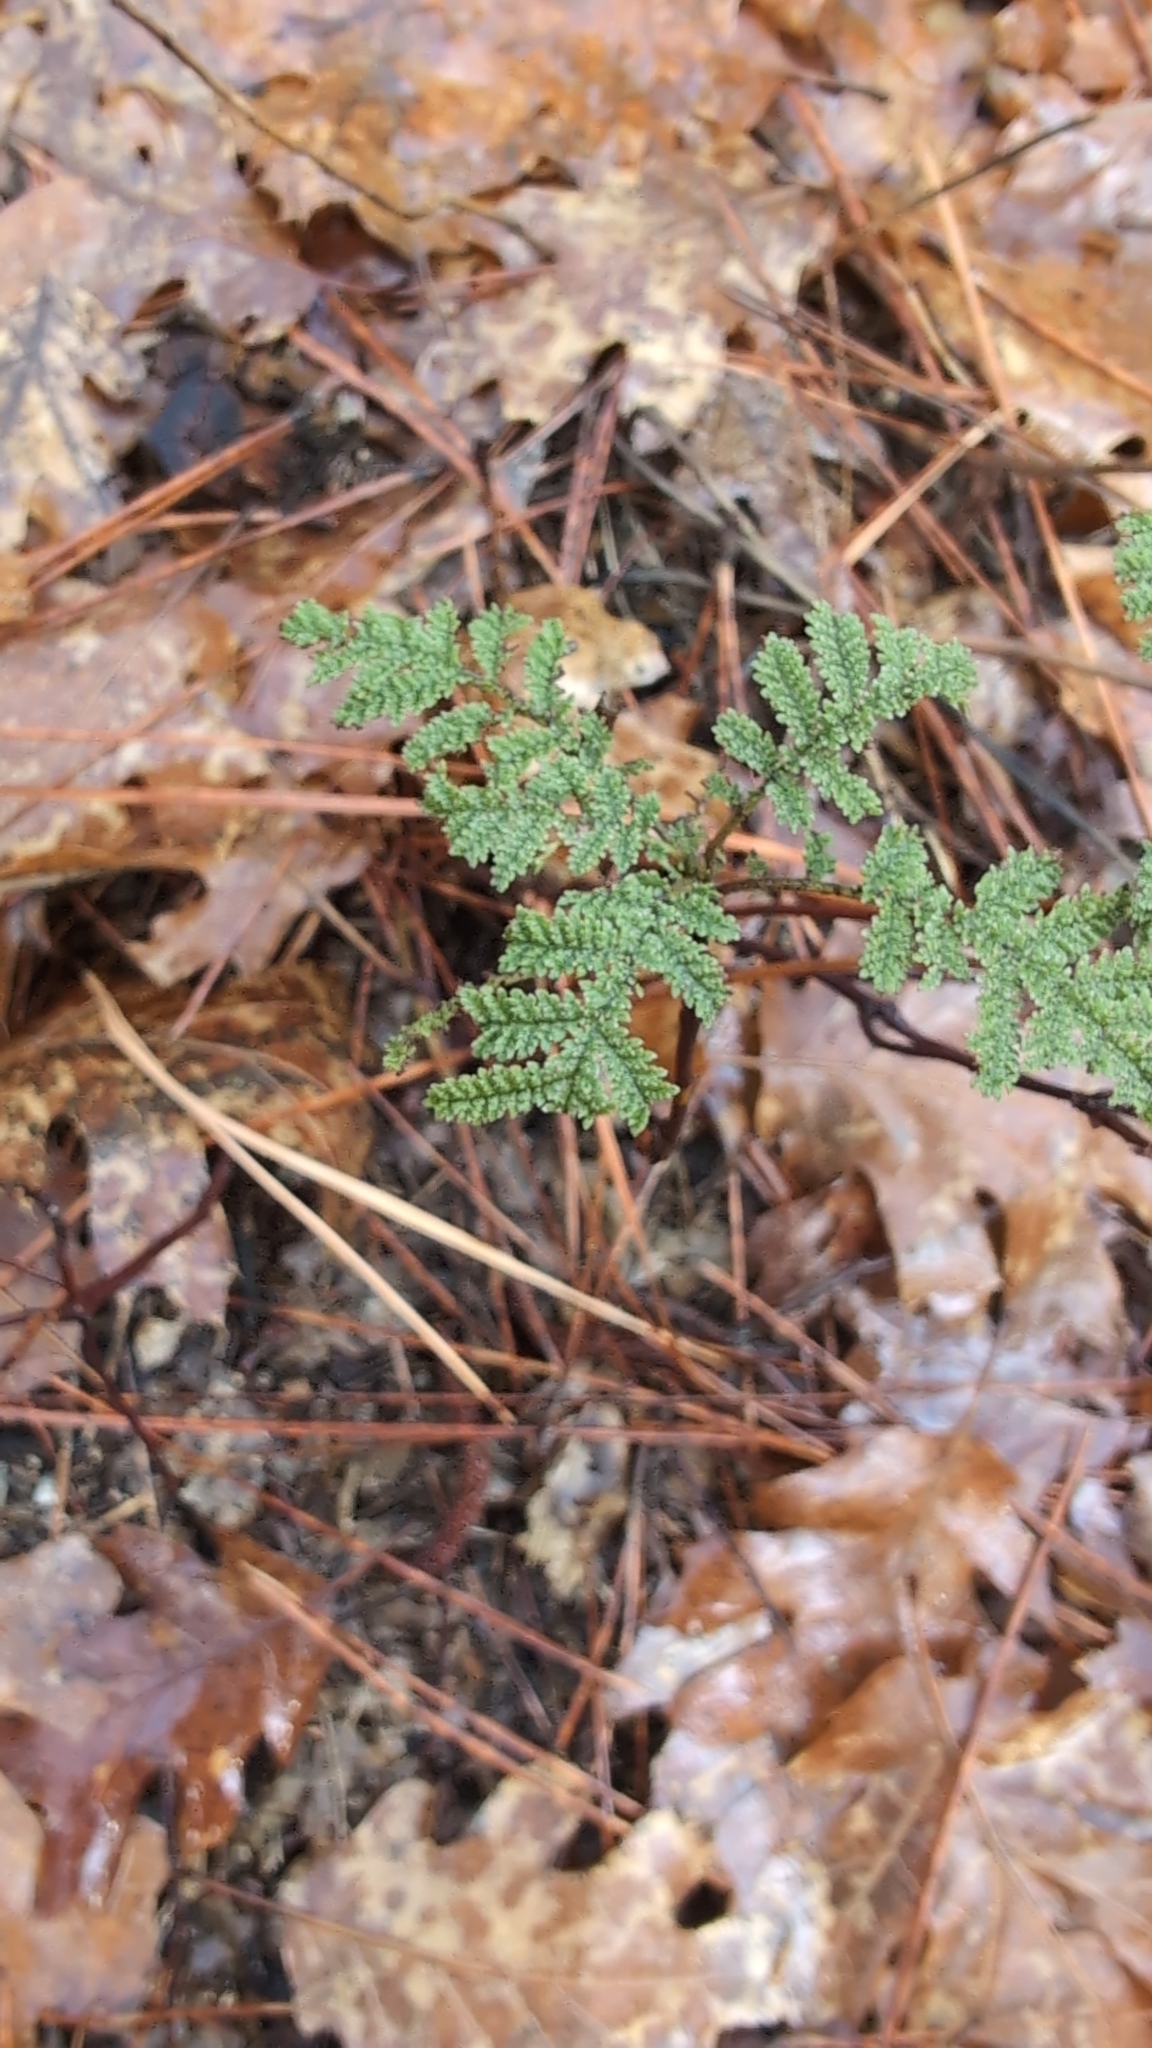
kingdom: Plantae
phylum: Tracheophyta
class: Magnoliopsida
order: Rosales
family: Rosaceae
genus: Chamaebatia
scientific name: Chamaebatia foliolosa
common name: Mountain misery
